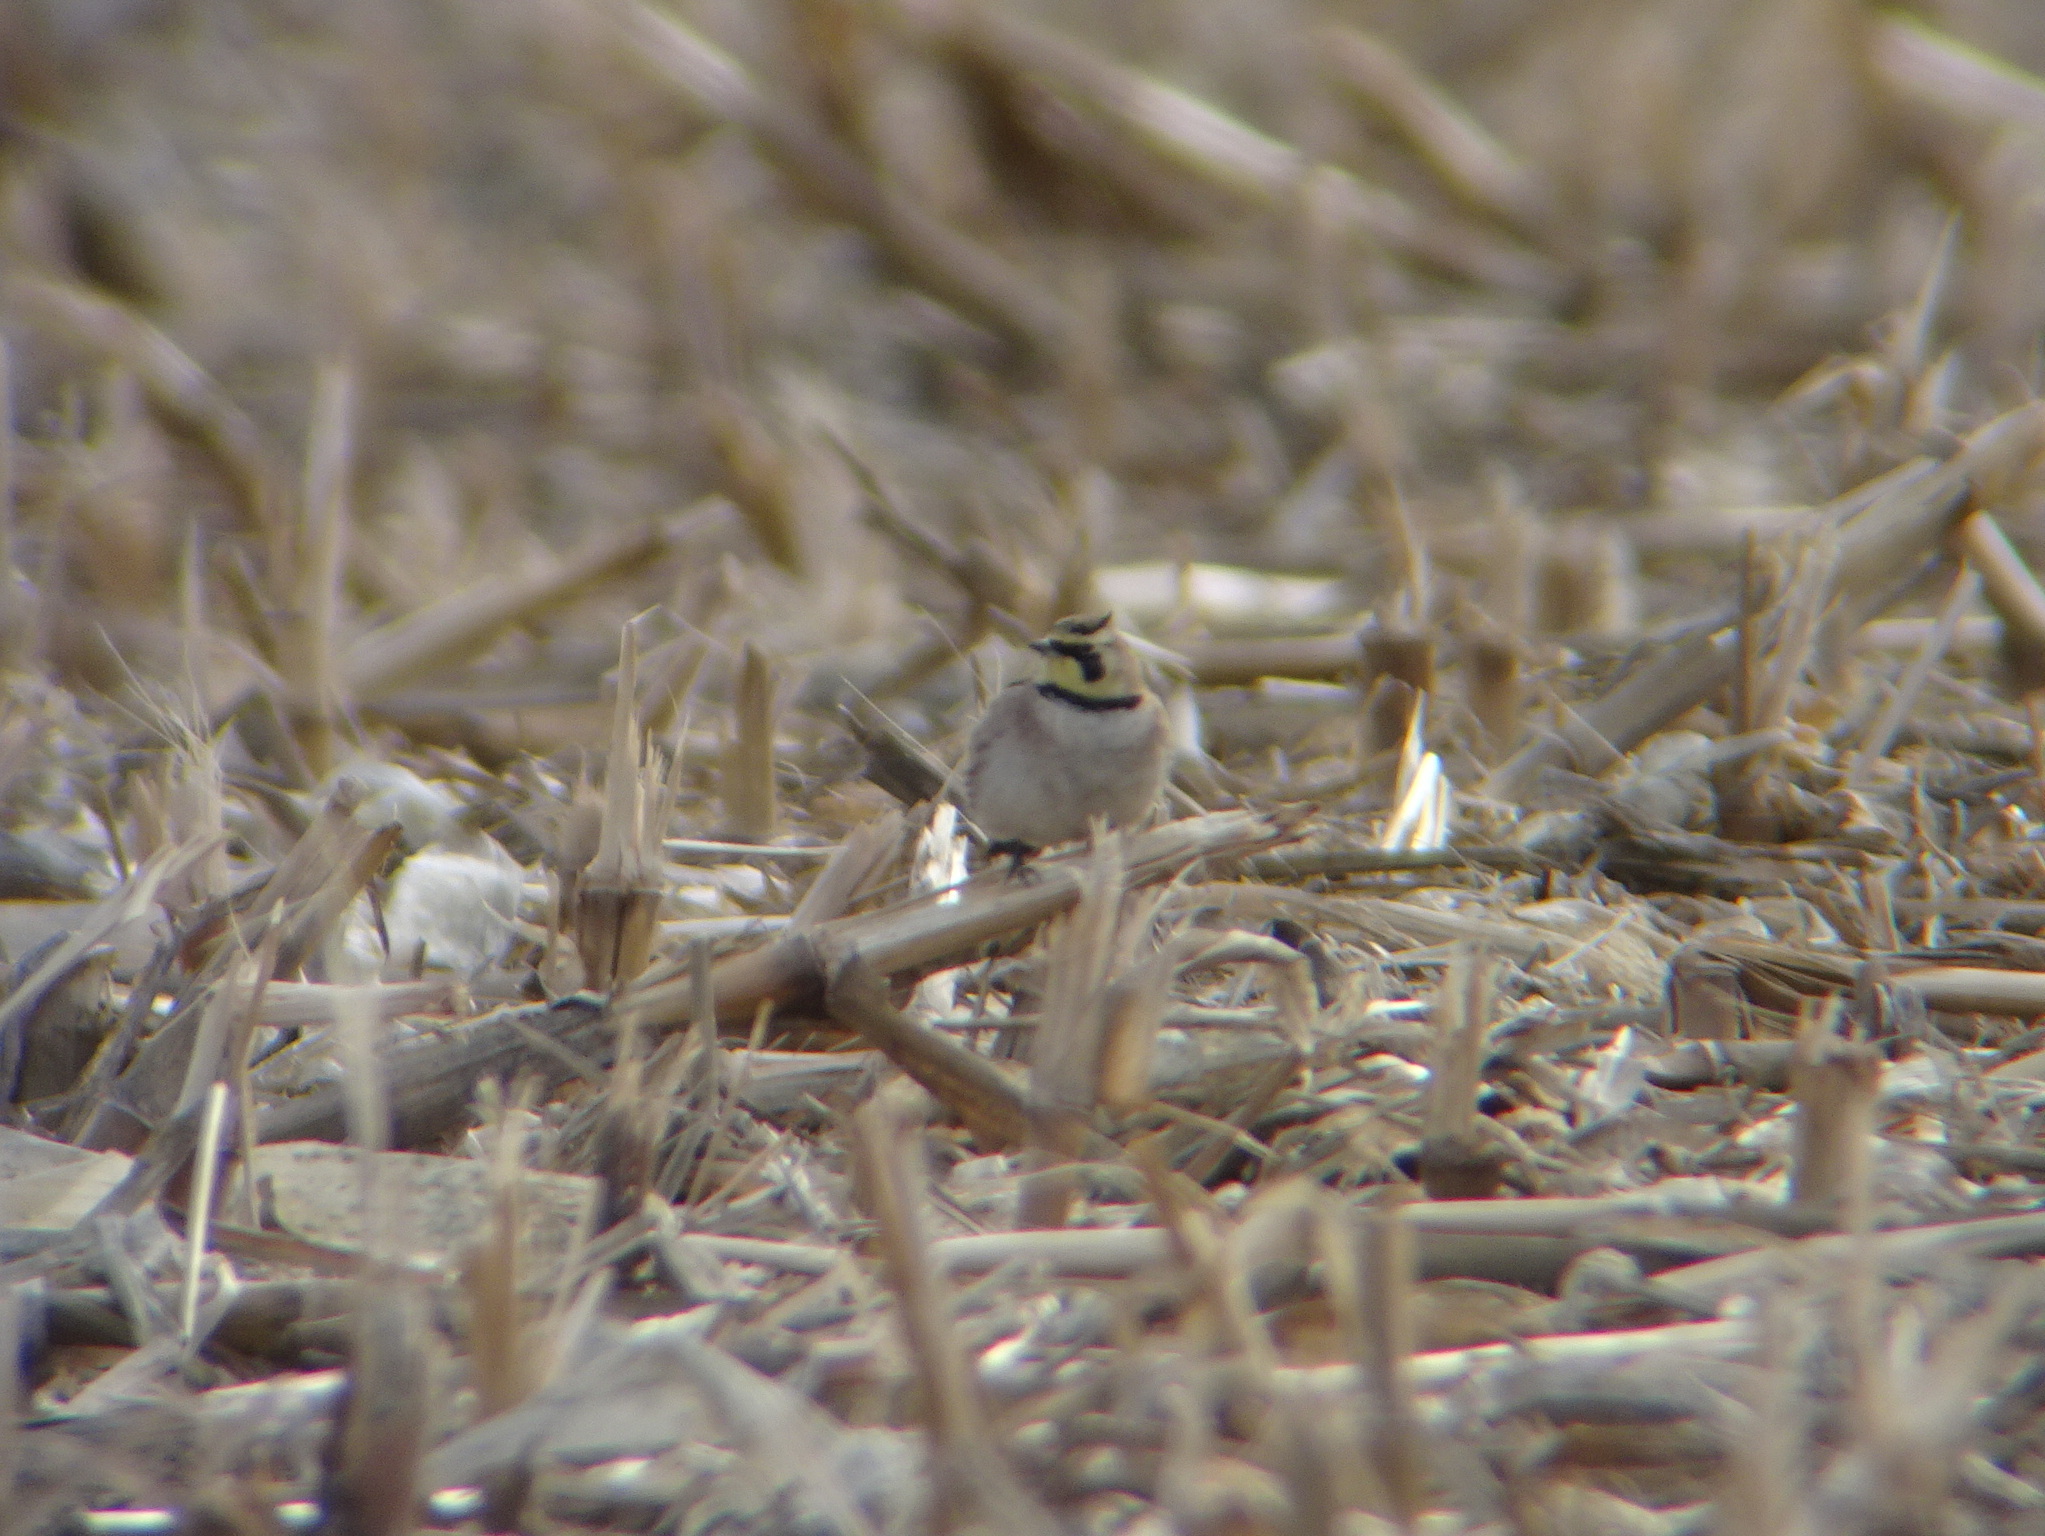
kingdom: Animalia
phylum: Chordata
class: Aves
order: Passeriformes
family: Alaudidae
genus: Eremophila
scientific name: Eremophila alpestris
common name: Horned lark
